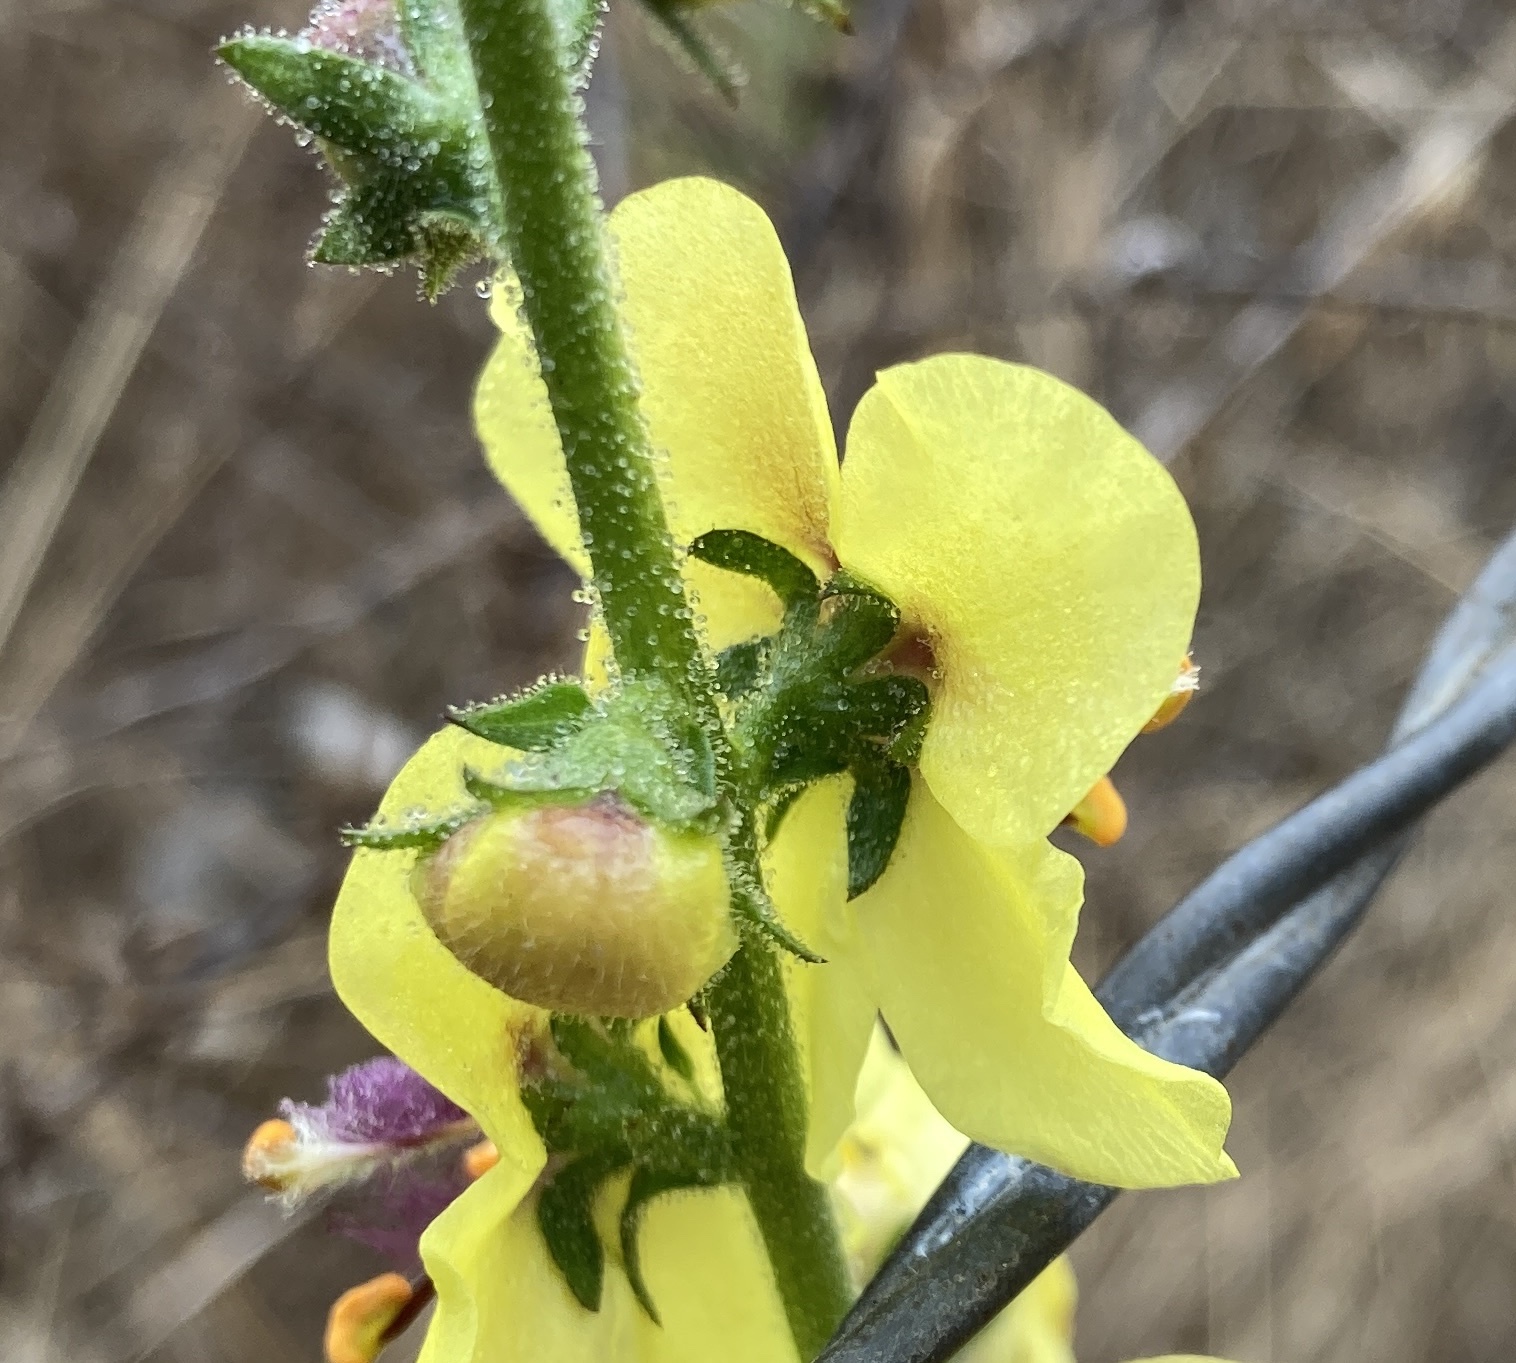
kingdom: Plantae
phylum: Tracheophyta
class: Magnoliopsida
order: Lamiales
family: Scrophulariaceae
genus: Verbascum
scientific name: Verbascum virgatum
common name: Twiggy mullein
